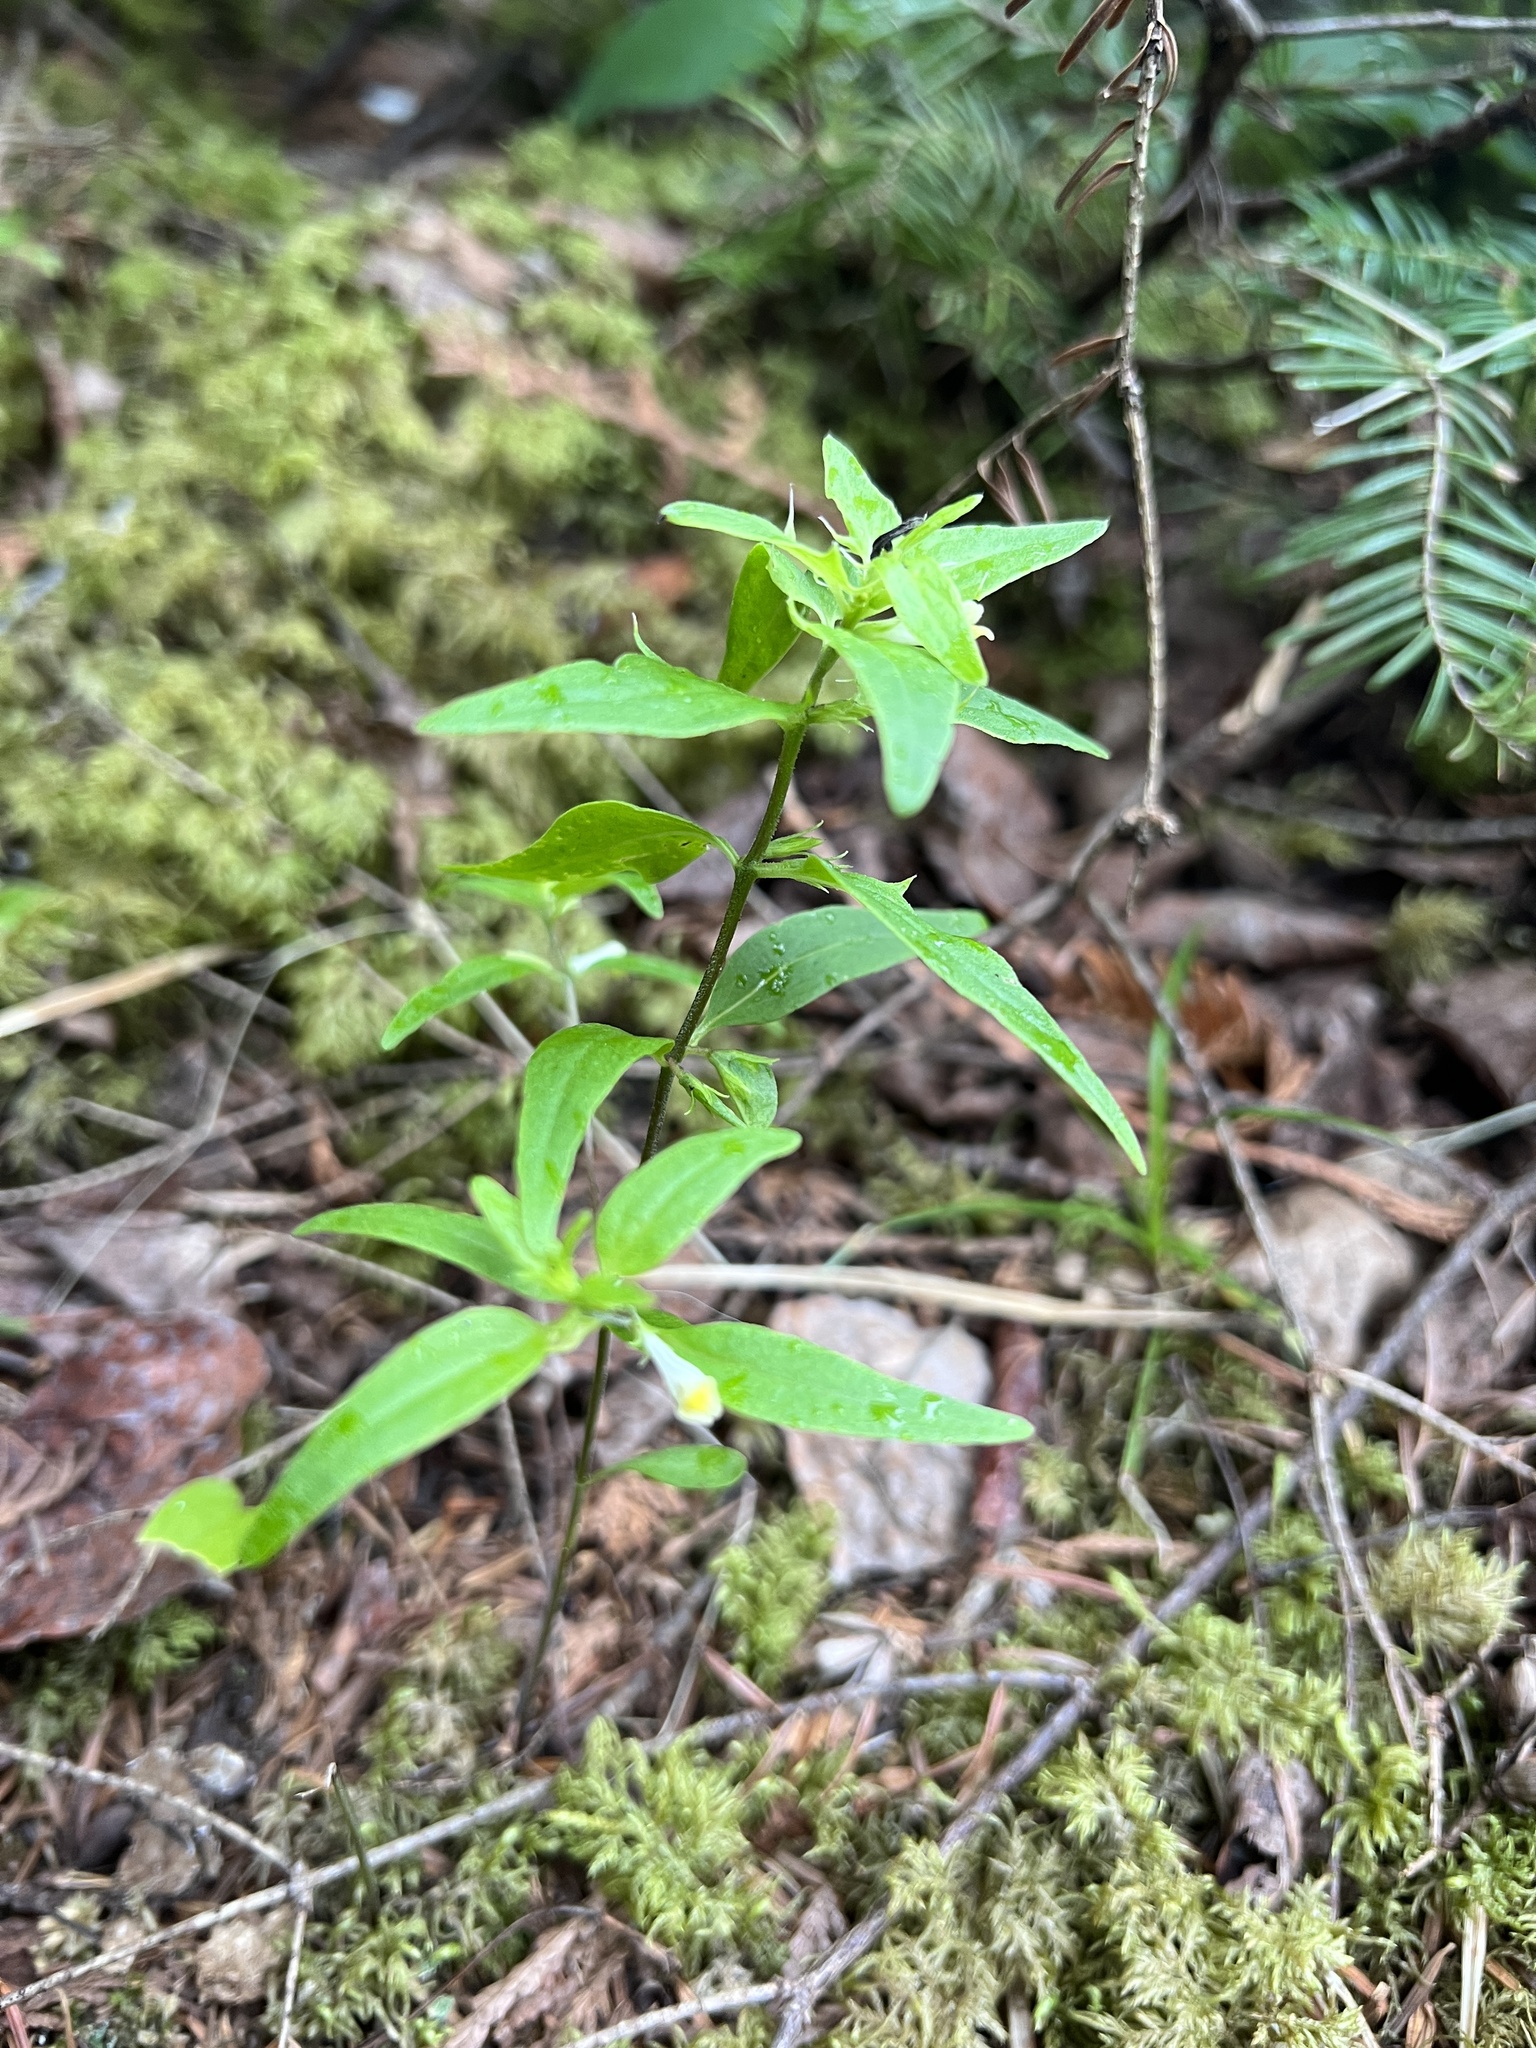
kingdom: Plantae
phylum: Tracheophyta
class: Magnoliopsida
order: Lamiales
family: Orobanchaceae
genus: Melampyrum
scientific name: Melampyrum lineare
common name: American cow-wheat
